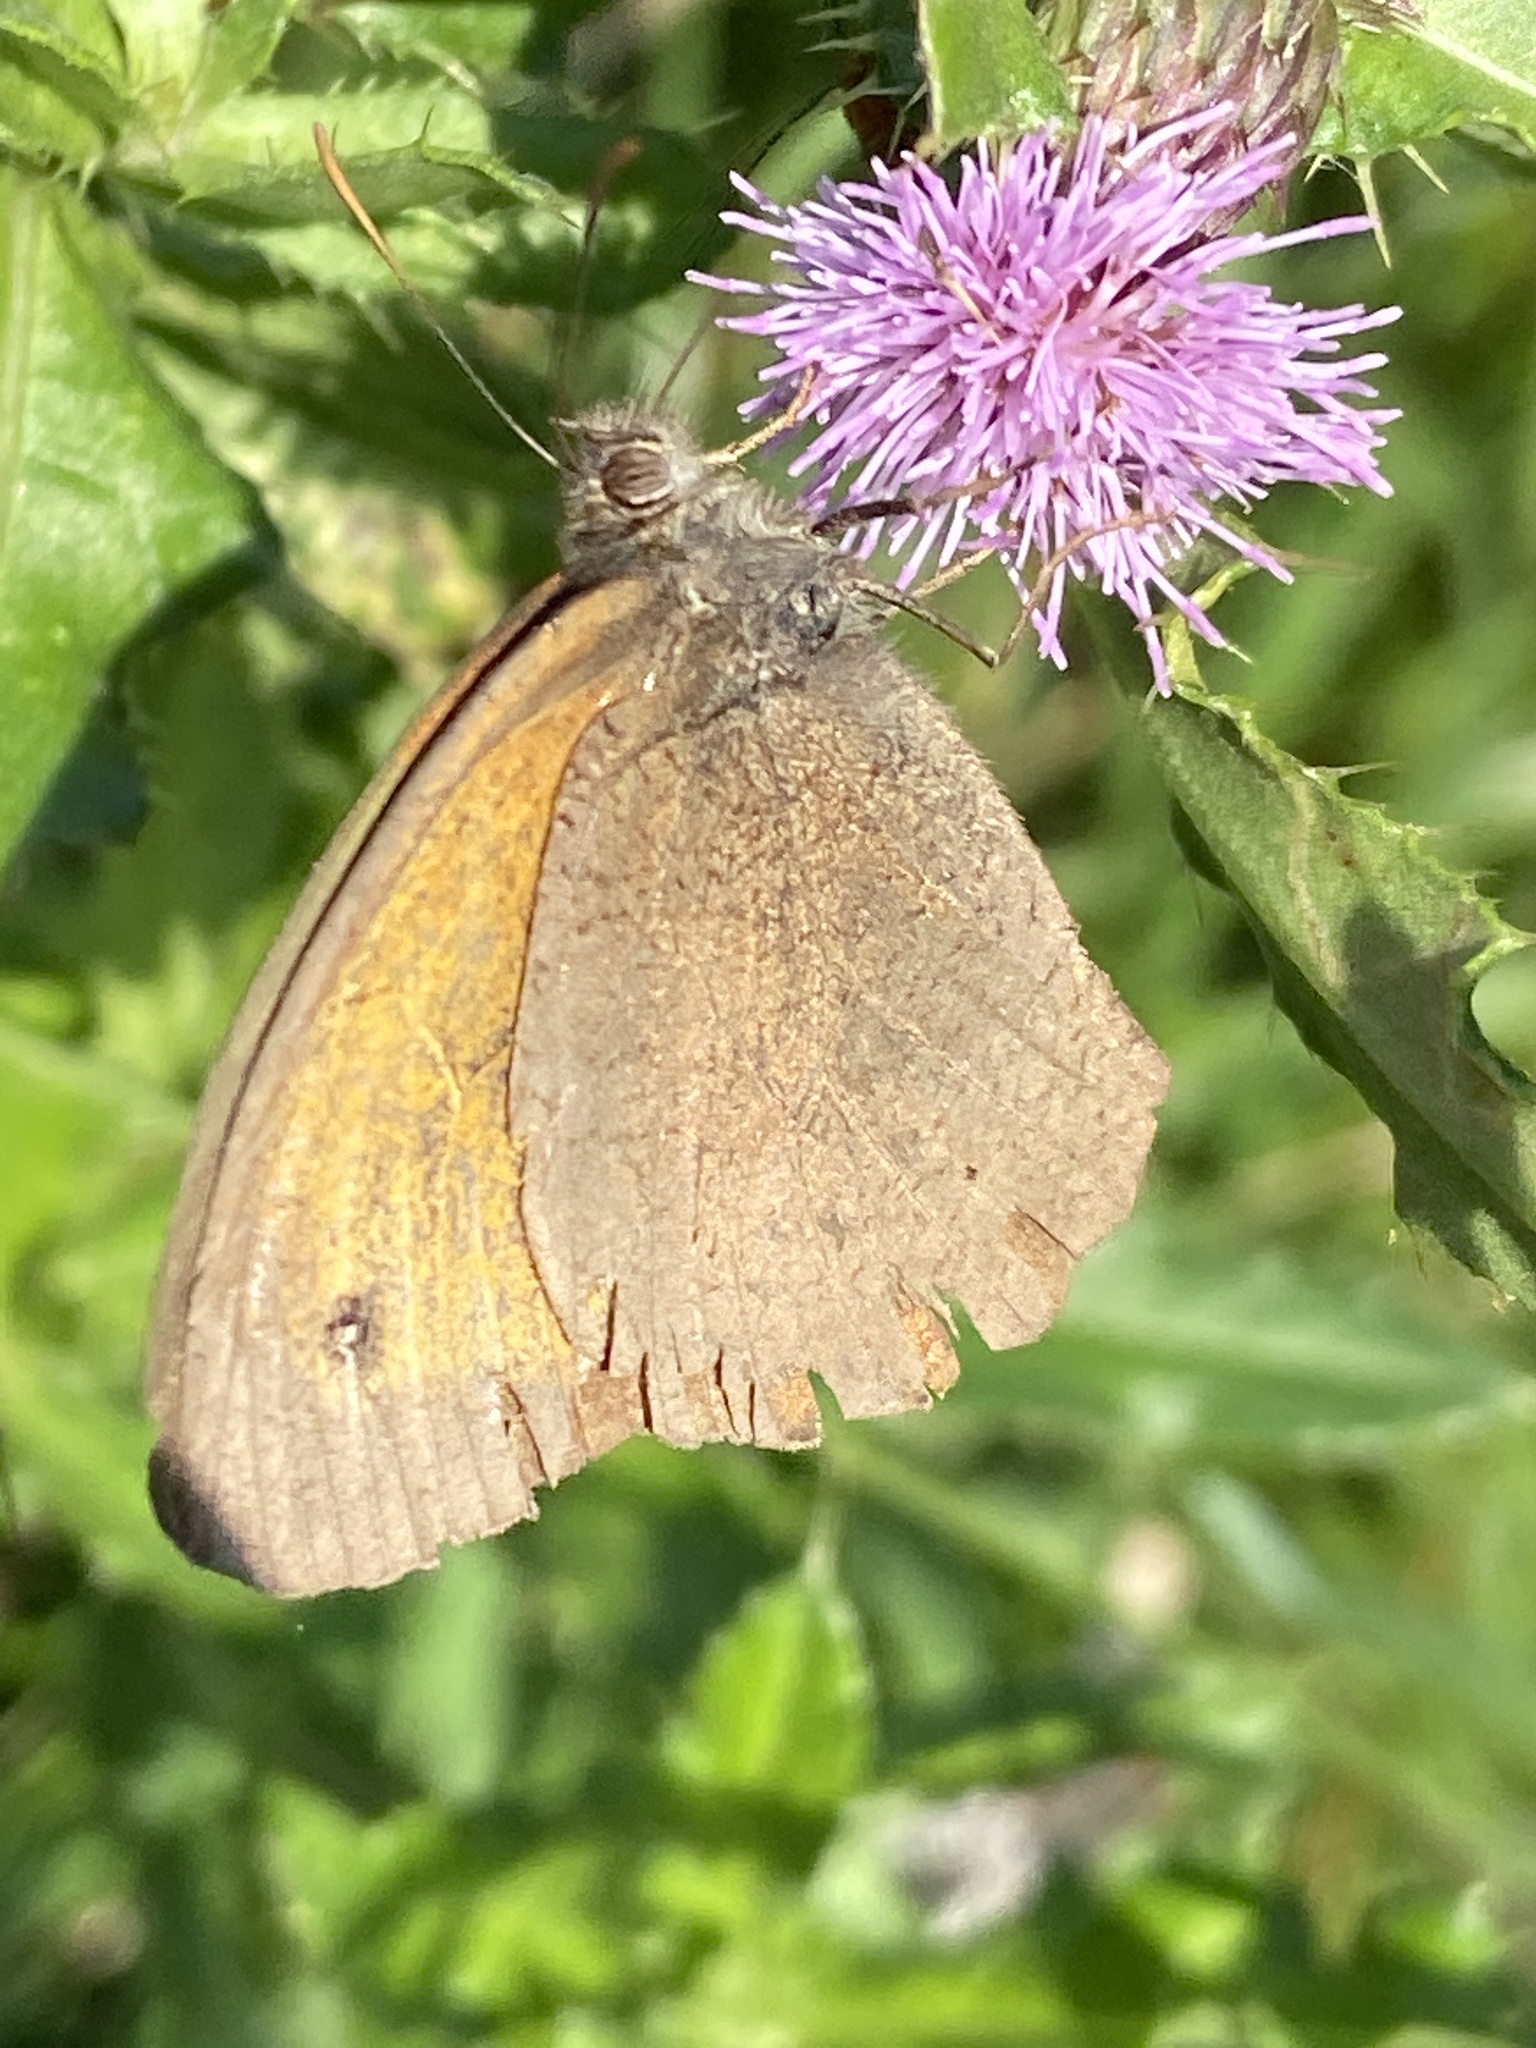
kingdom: Animalia
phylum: Arthropoda
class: Insecta
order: Lepidoptera
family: Nymphalidae
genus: Maniola
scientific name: Maniola jurtina
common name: Meadow brown
